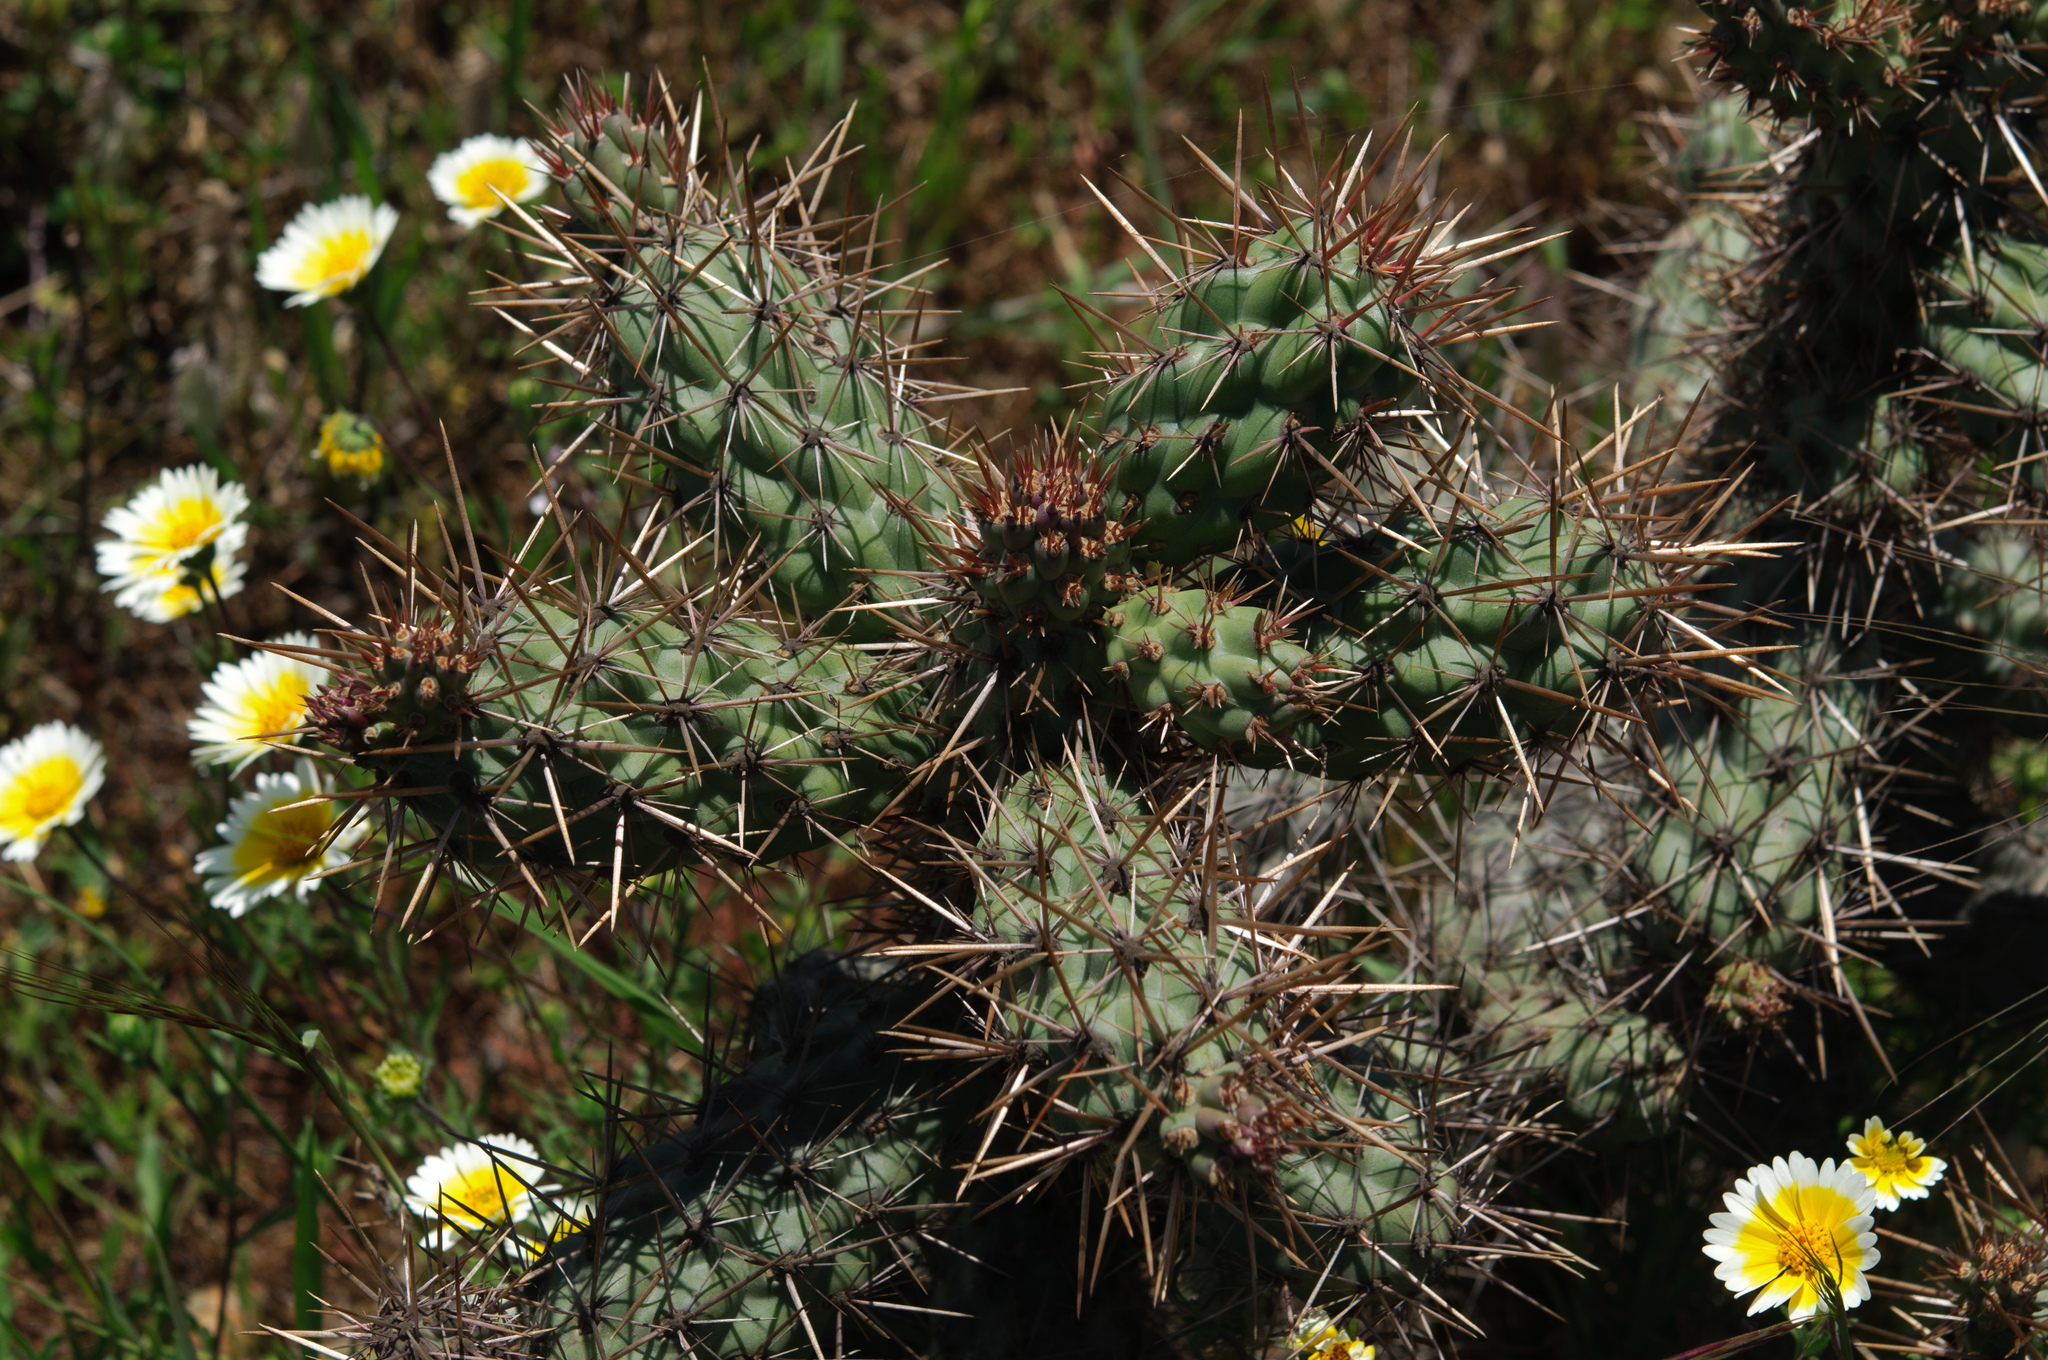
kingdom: Plantae
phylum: Tracheophyta
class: Magnoliopsida
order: Caryophyllales
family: Cactaceae
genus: Cylindropuntia
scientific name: Cylindropuntia prolifera
